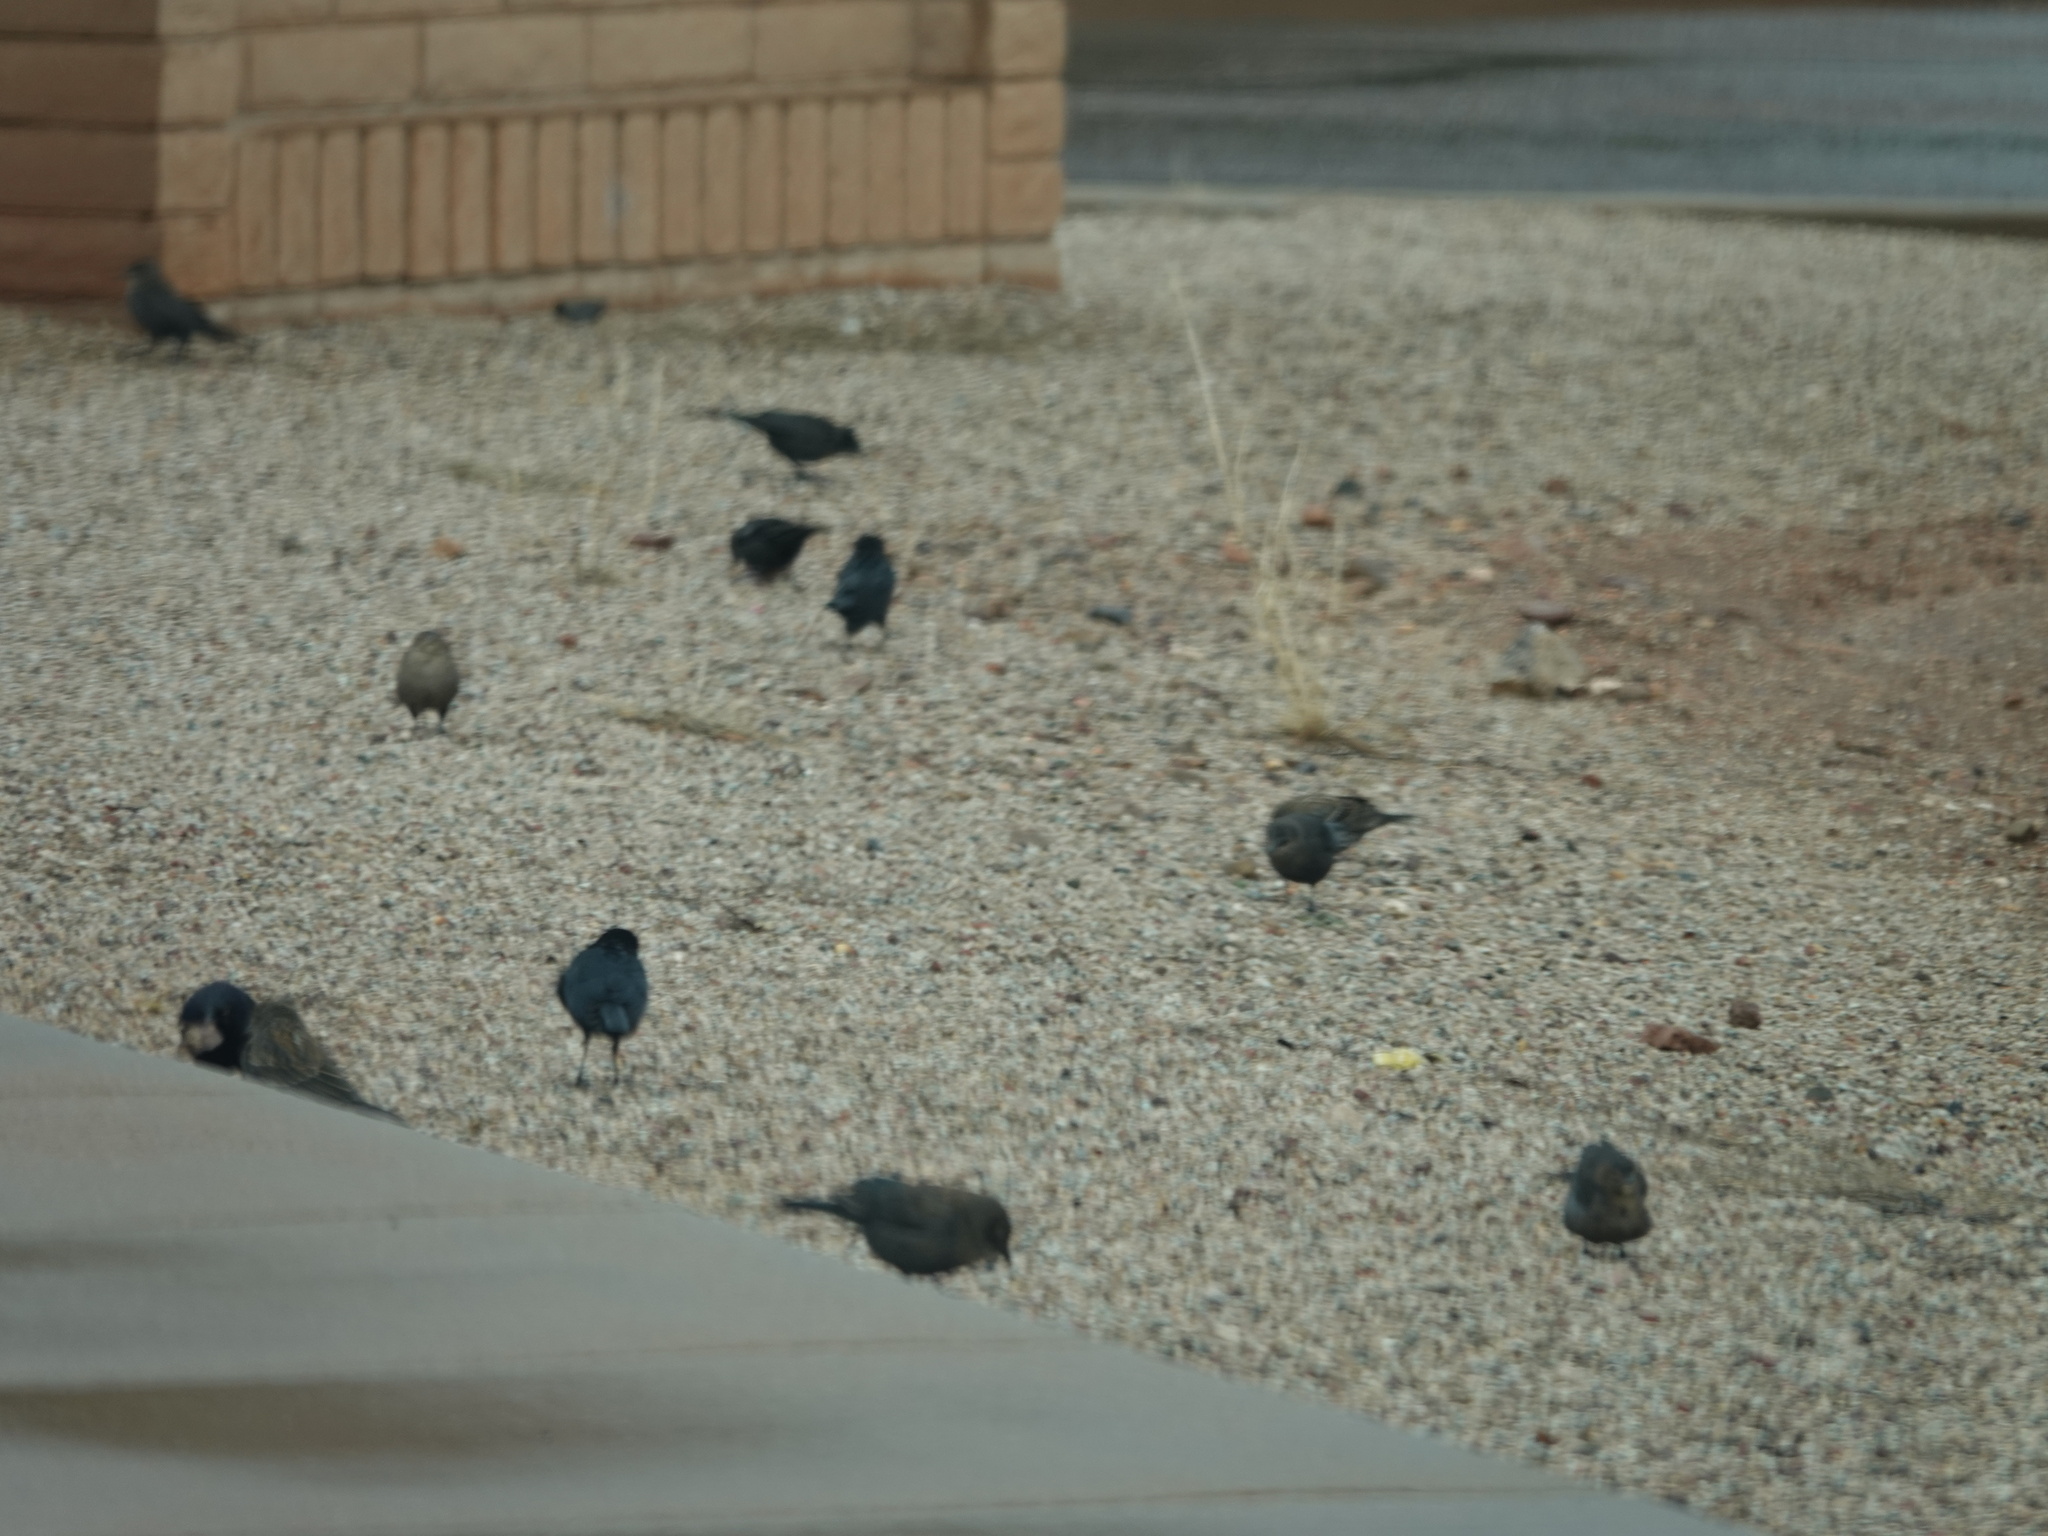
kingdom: Animalia
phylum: Chordata
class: Aves
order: Passeriformes
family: Icteridae
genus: Euphagus
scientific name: Euphagus cyanocephalus
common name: Brewer's blackbird
